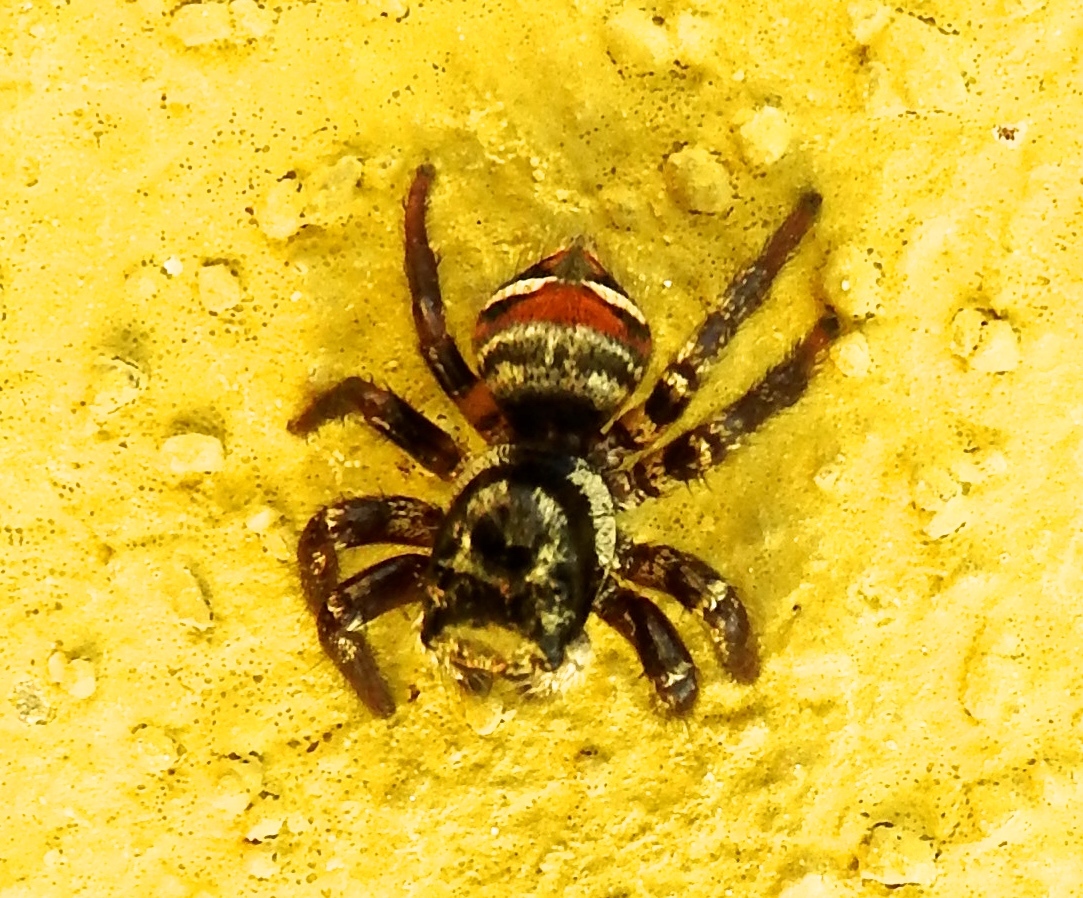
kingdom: Animalia
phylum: Arthropoda
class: Arachnida
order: Araneae
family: Salticidae
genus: Corythalia
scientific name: Corythalia opima
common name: Jumping spiders
